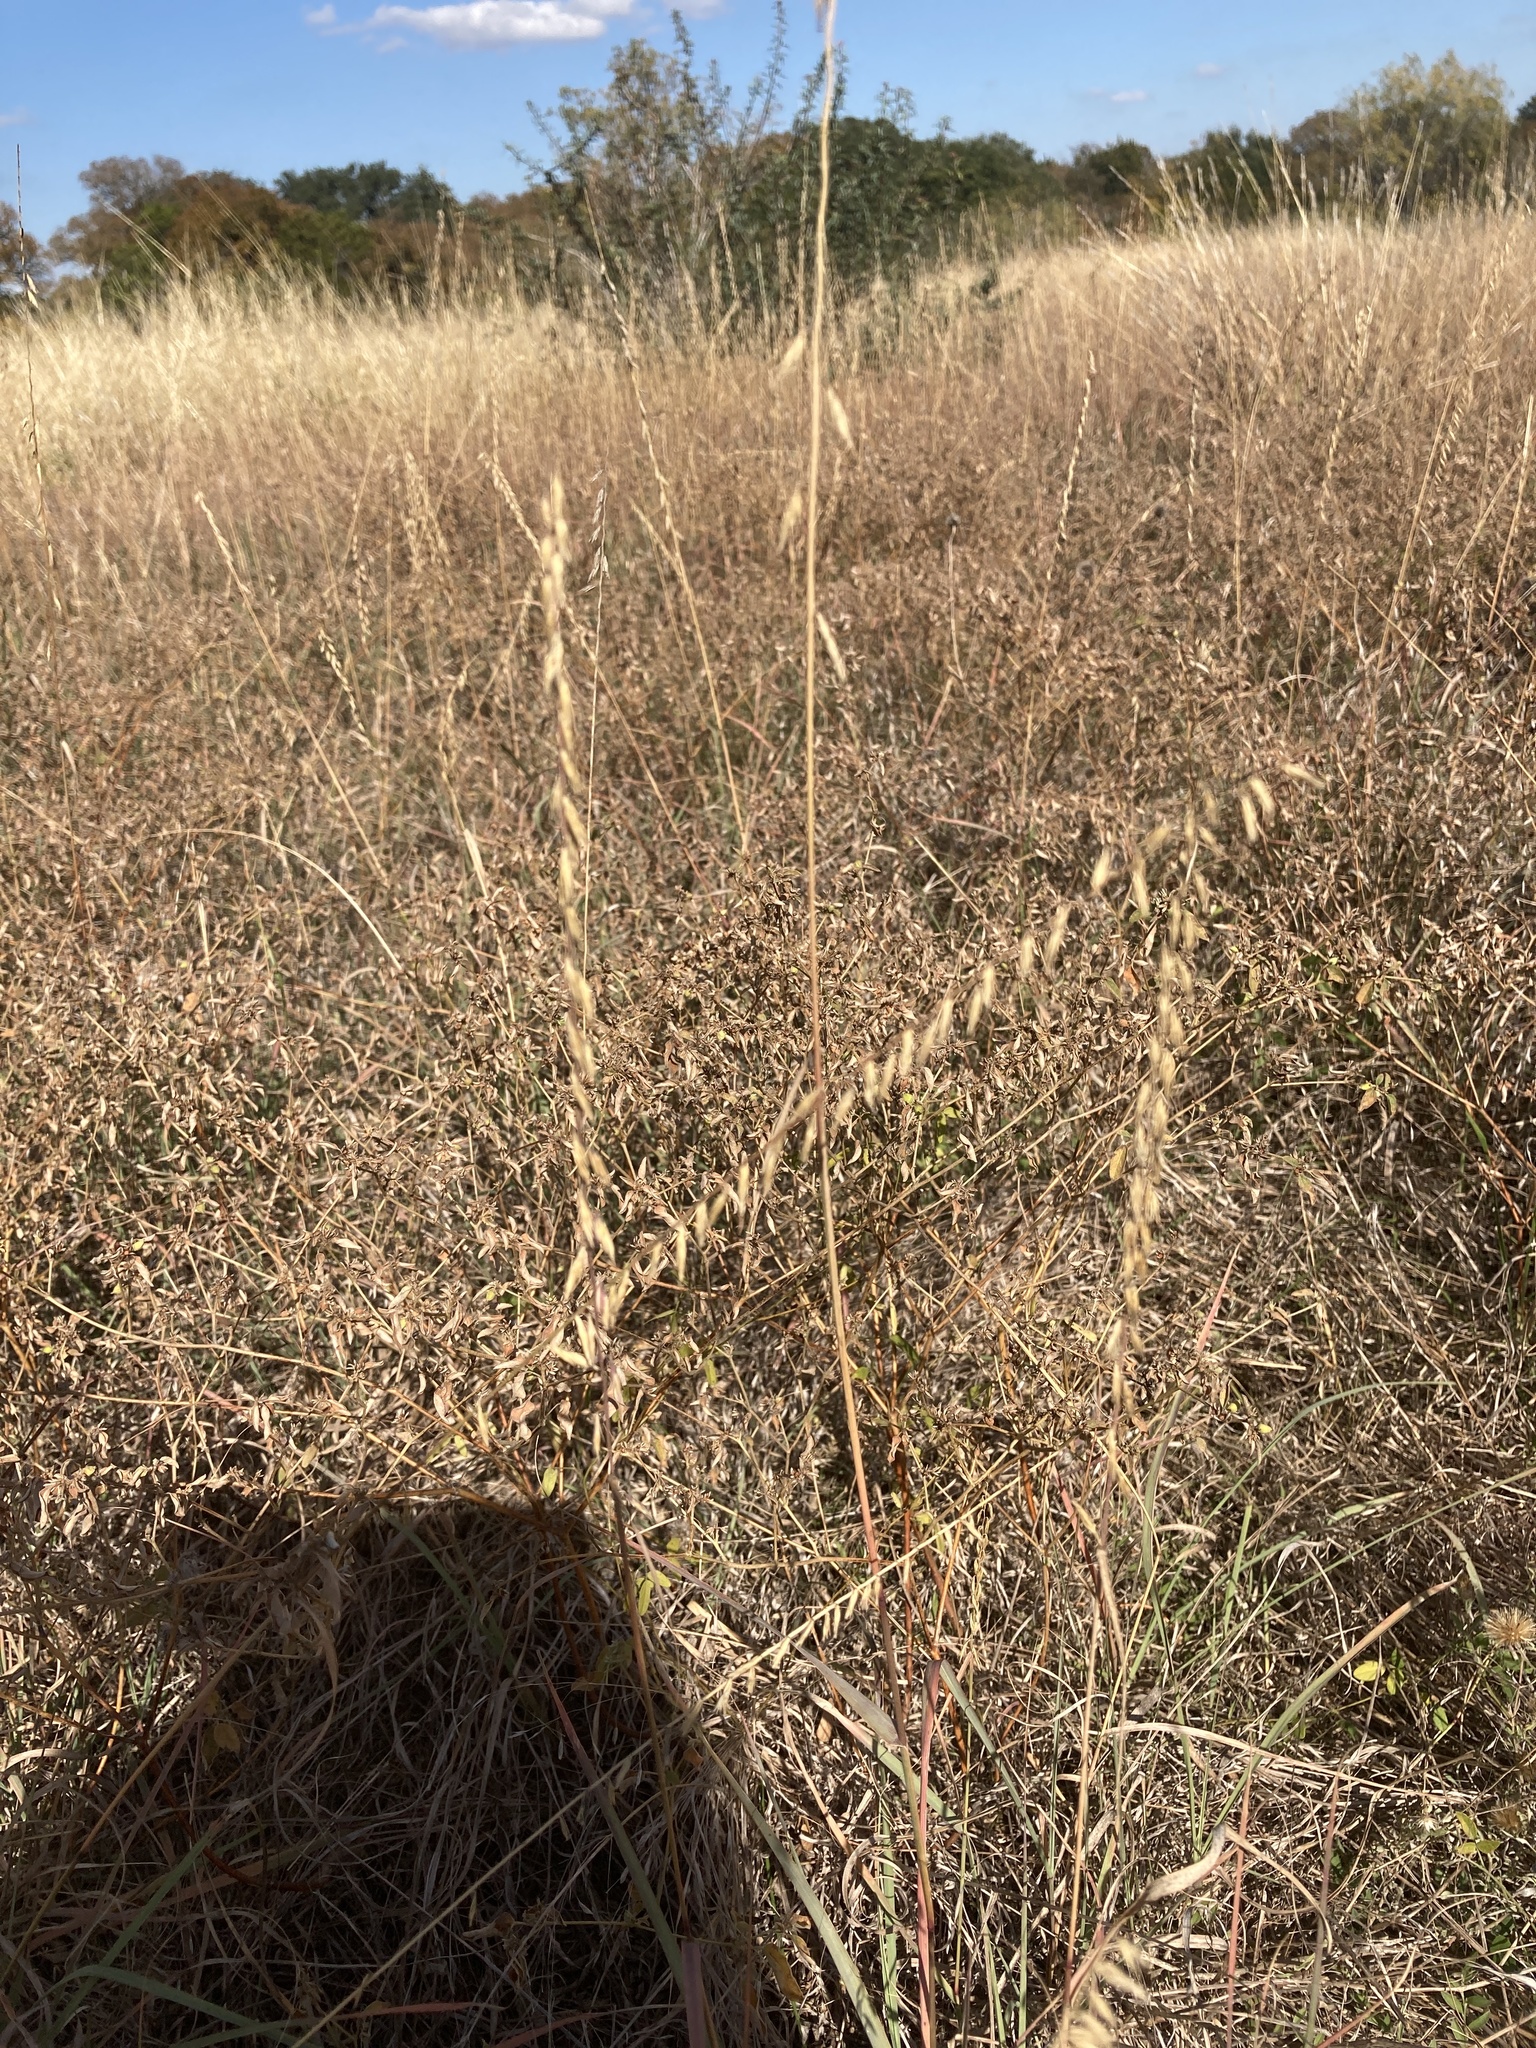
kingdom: Plantae
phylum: Tracheophyta
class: Liliopsida
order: Poales
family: Poaceae
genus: Bouteloua
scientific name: Bouteloua curtipendula
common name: Side-oats grama
